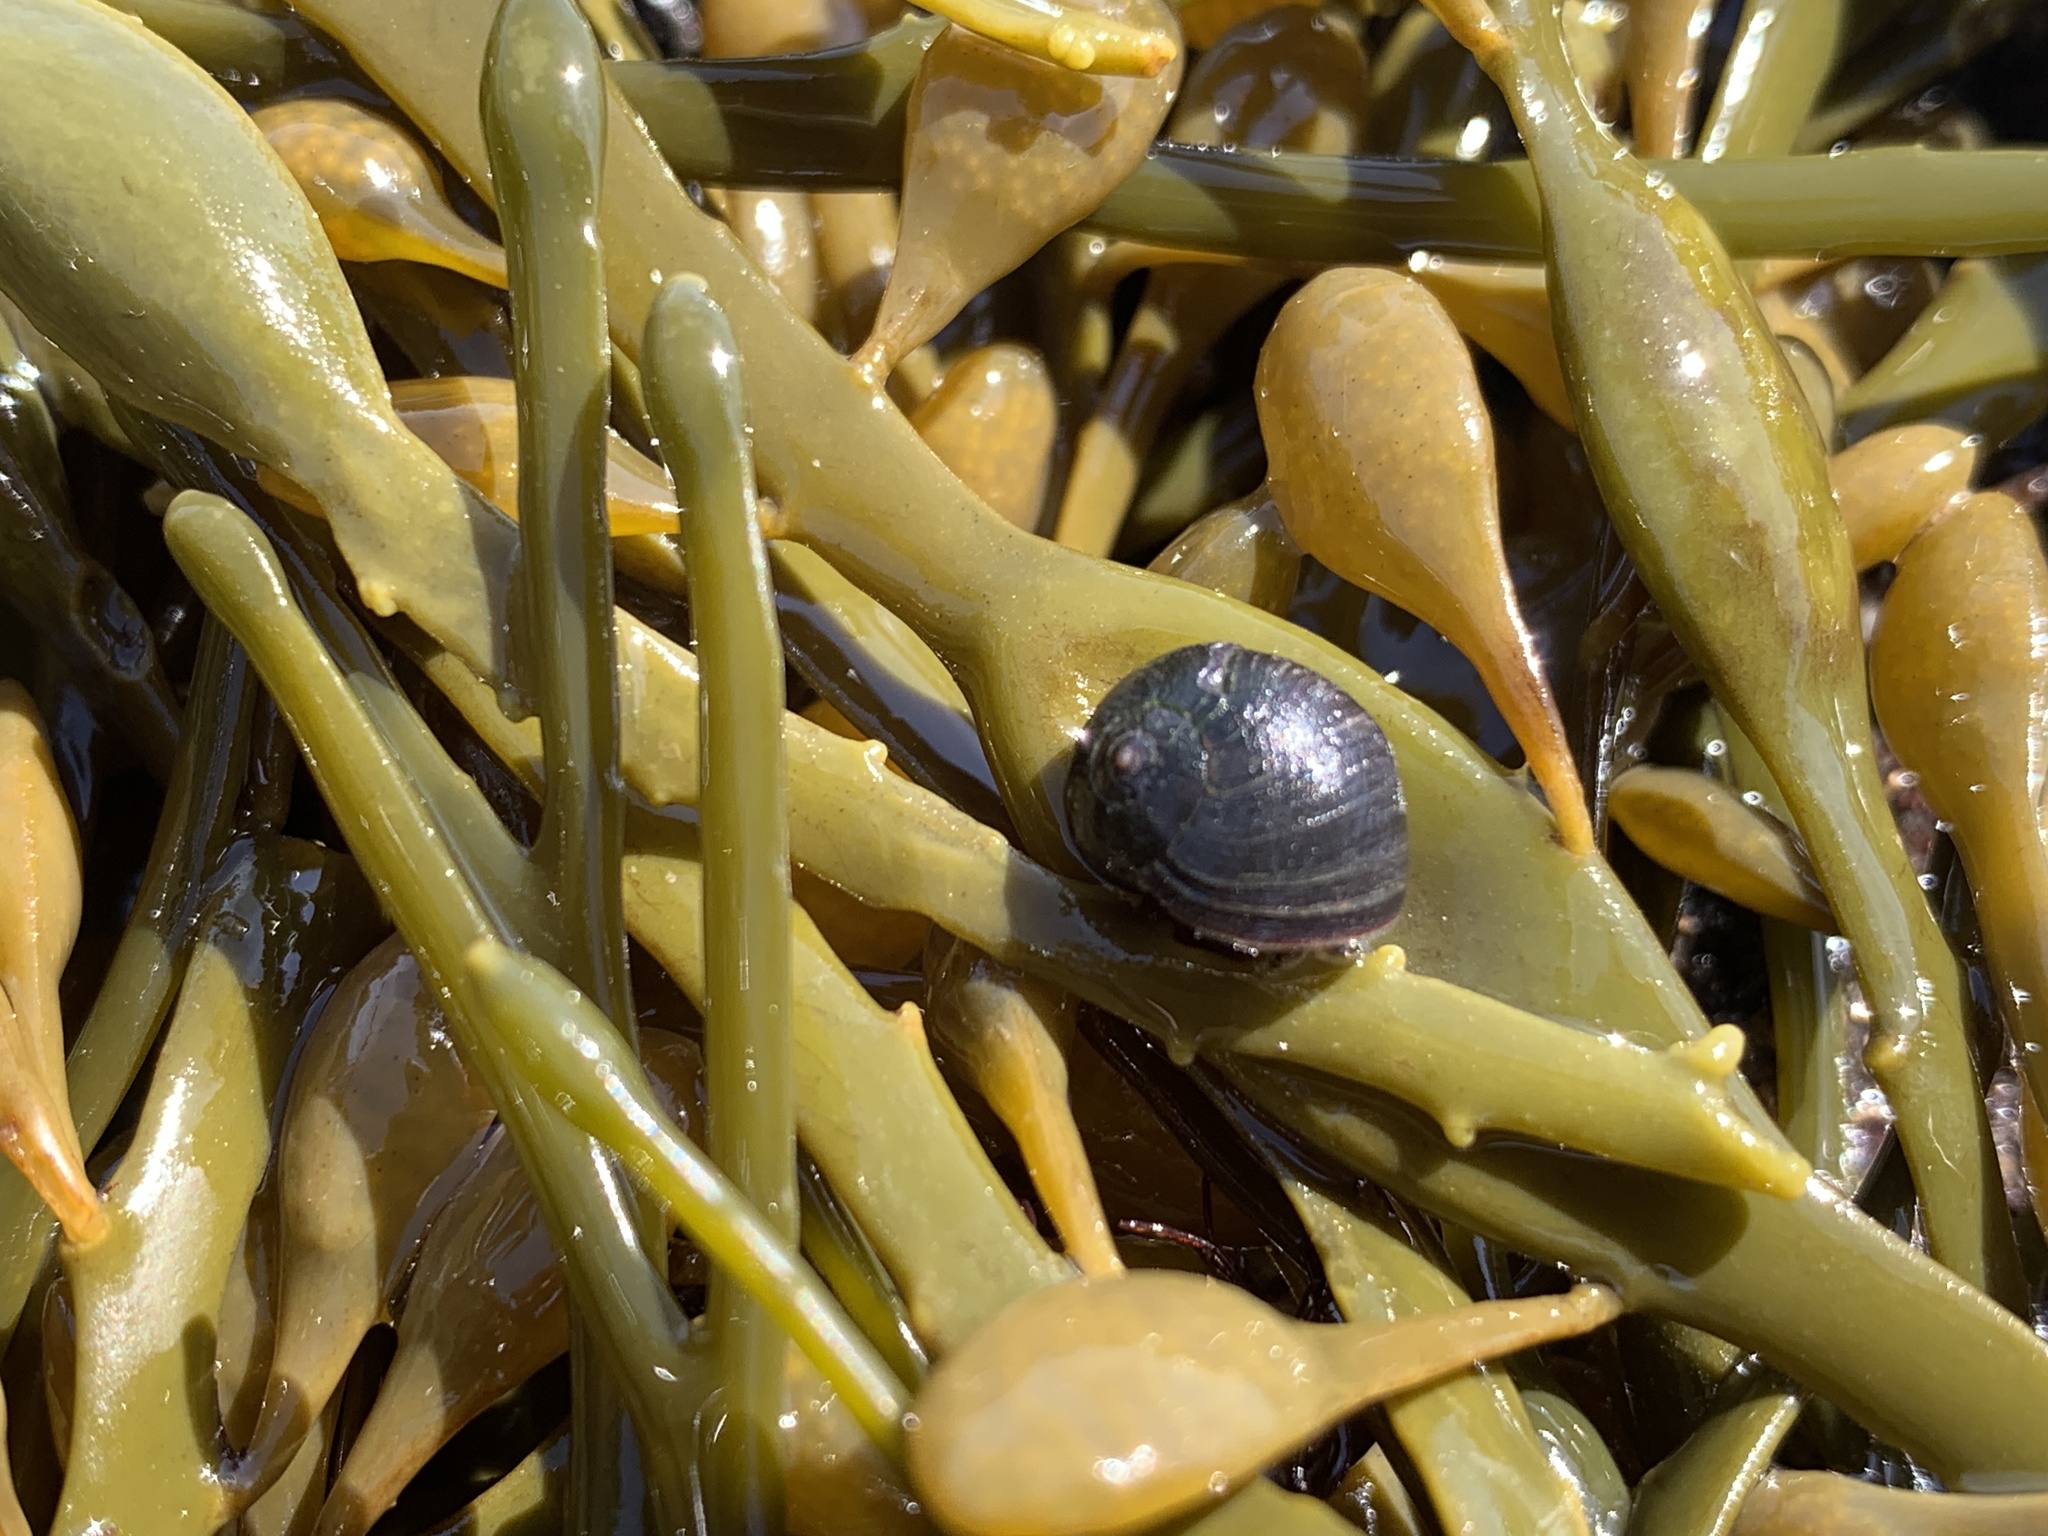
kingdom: Animalia
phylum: Mollusca
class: Gastropoda
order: Littorinimorpha
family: Littorinidae
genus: Littorina
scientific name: Littorina obtusata
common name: Flat periwinkle
